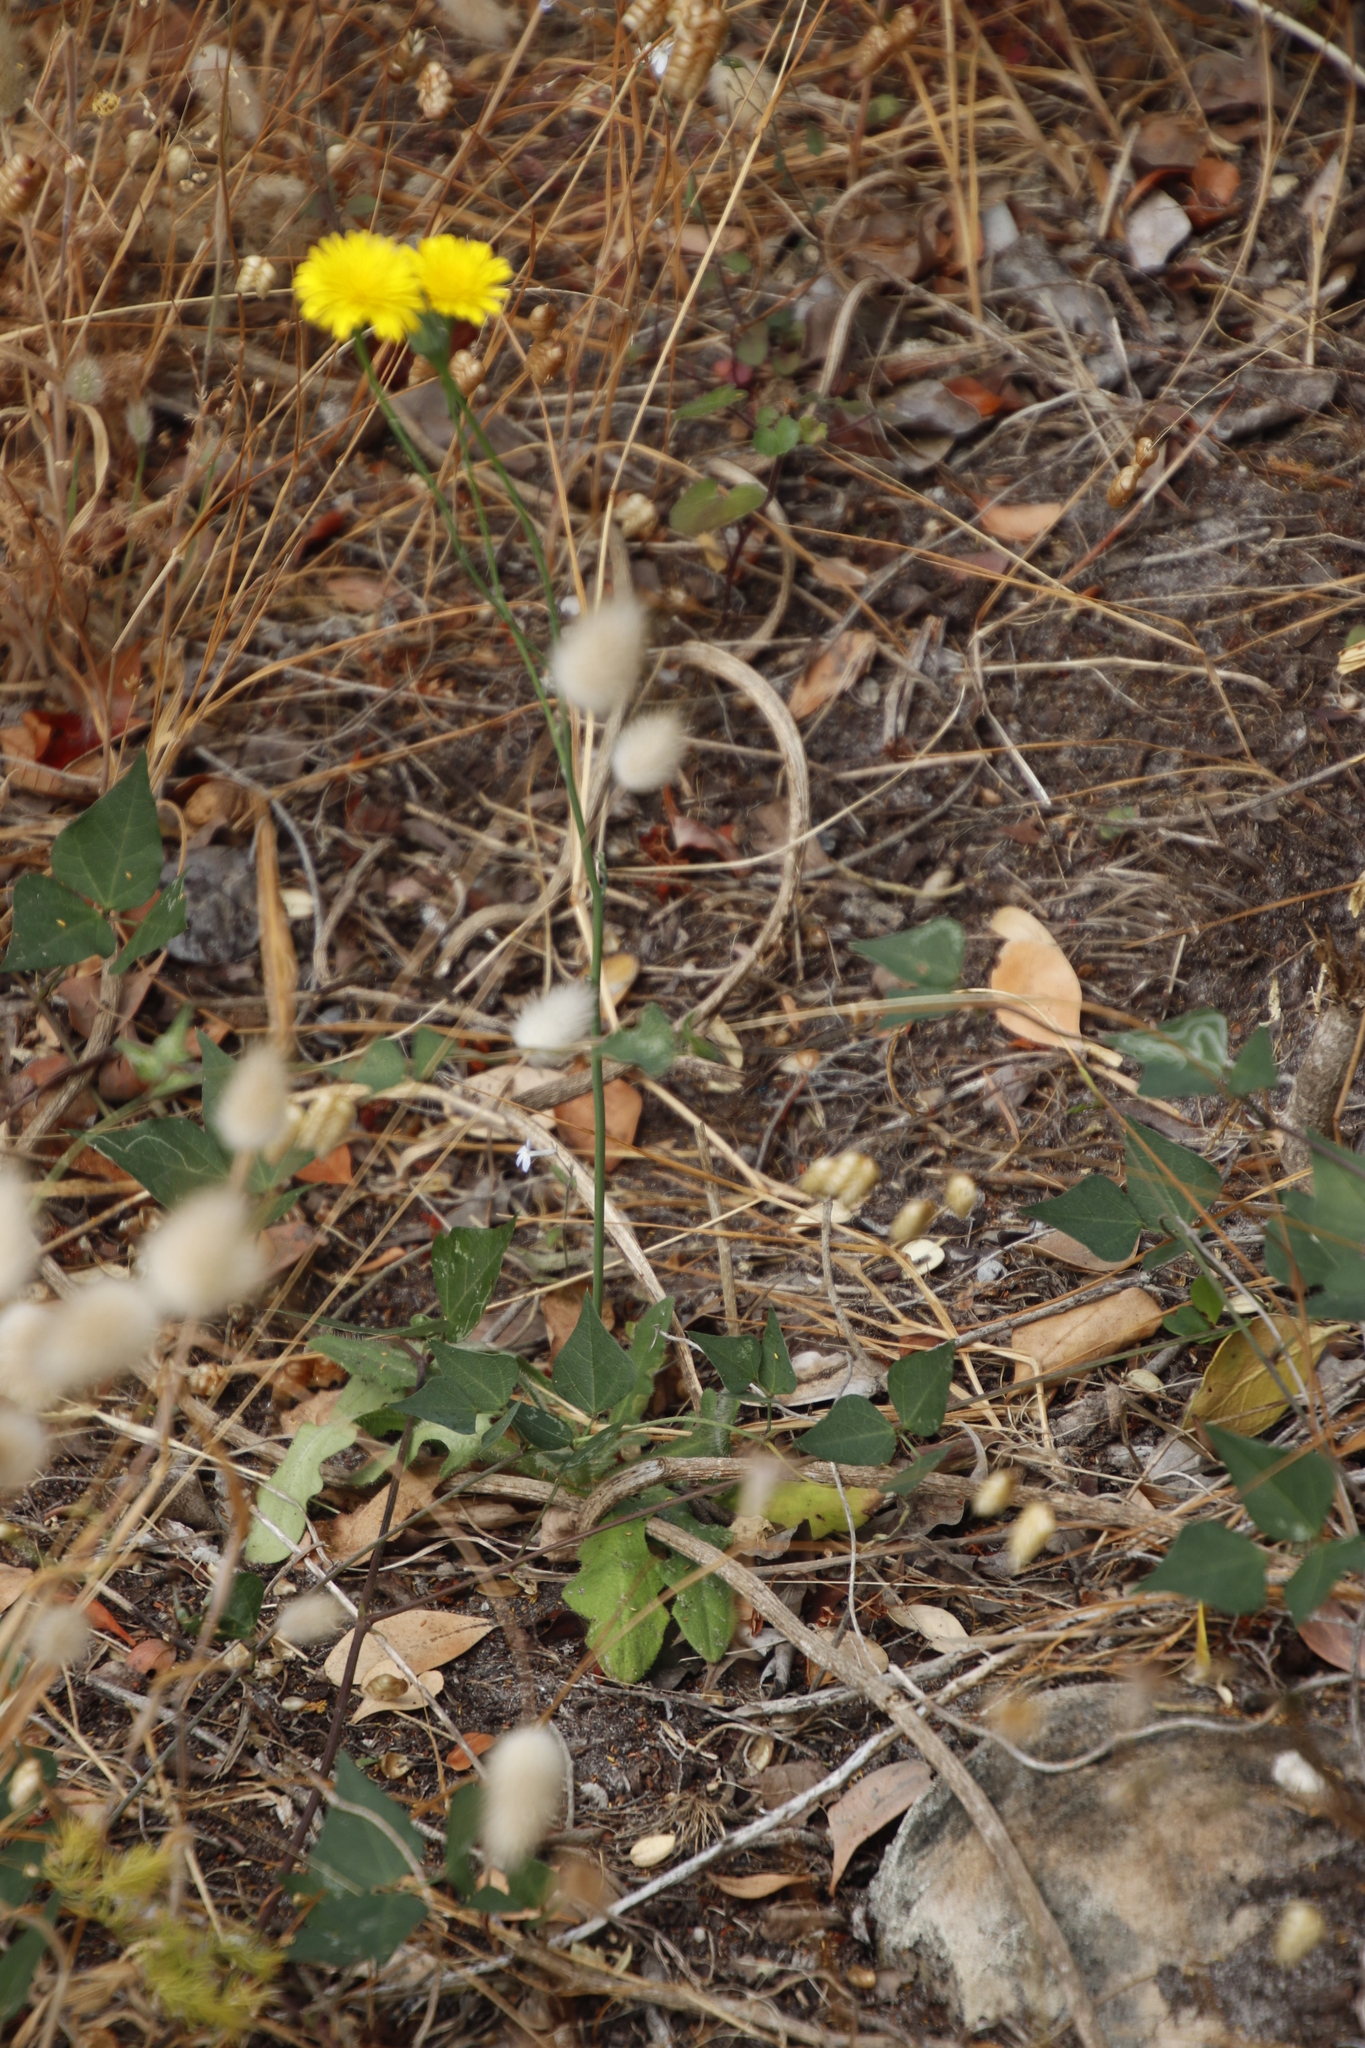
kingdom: Plantae
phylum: Tracheophyta
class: Magnoliopsida
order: Asterales
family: Asteraceae
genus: Hypochaeris
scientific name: Hypochaeris radicata
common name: Flatweed
